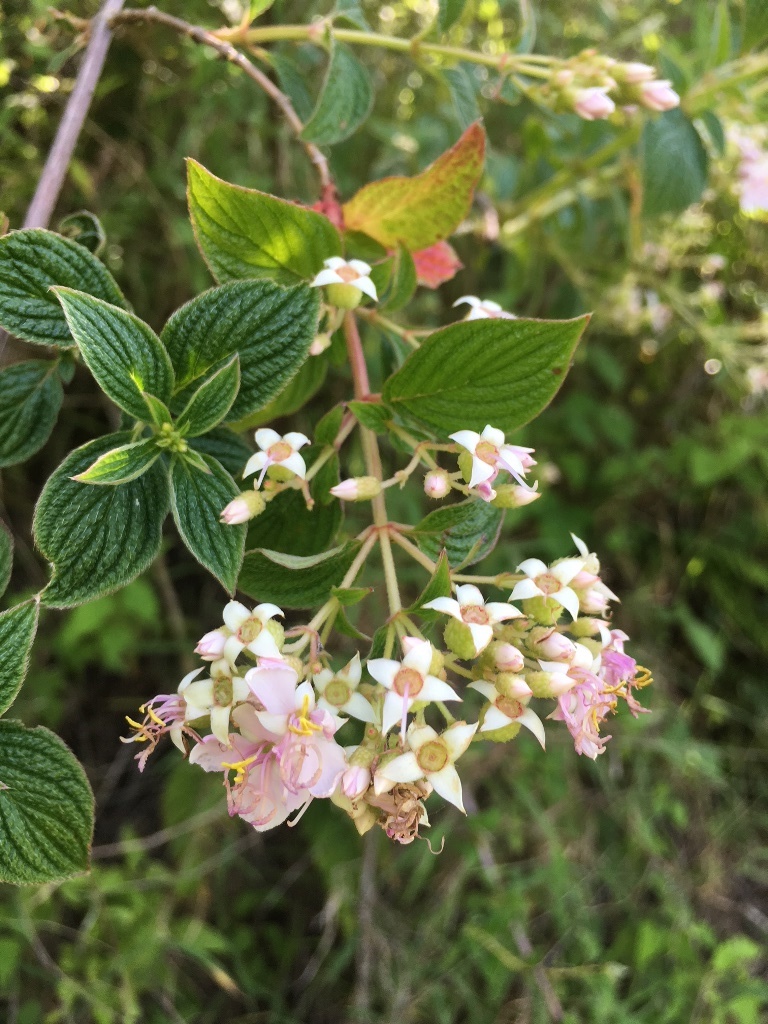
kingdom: Plantae
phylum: Tracheophyta
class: Magnoliopsida
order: Myrtales
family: Melastomataceae
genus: Heterocentron
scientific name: Heterocentron subtriplinervium
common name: Pearl flower
